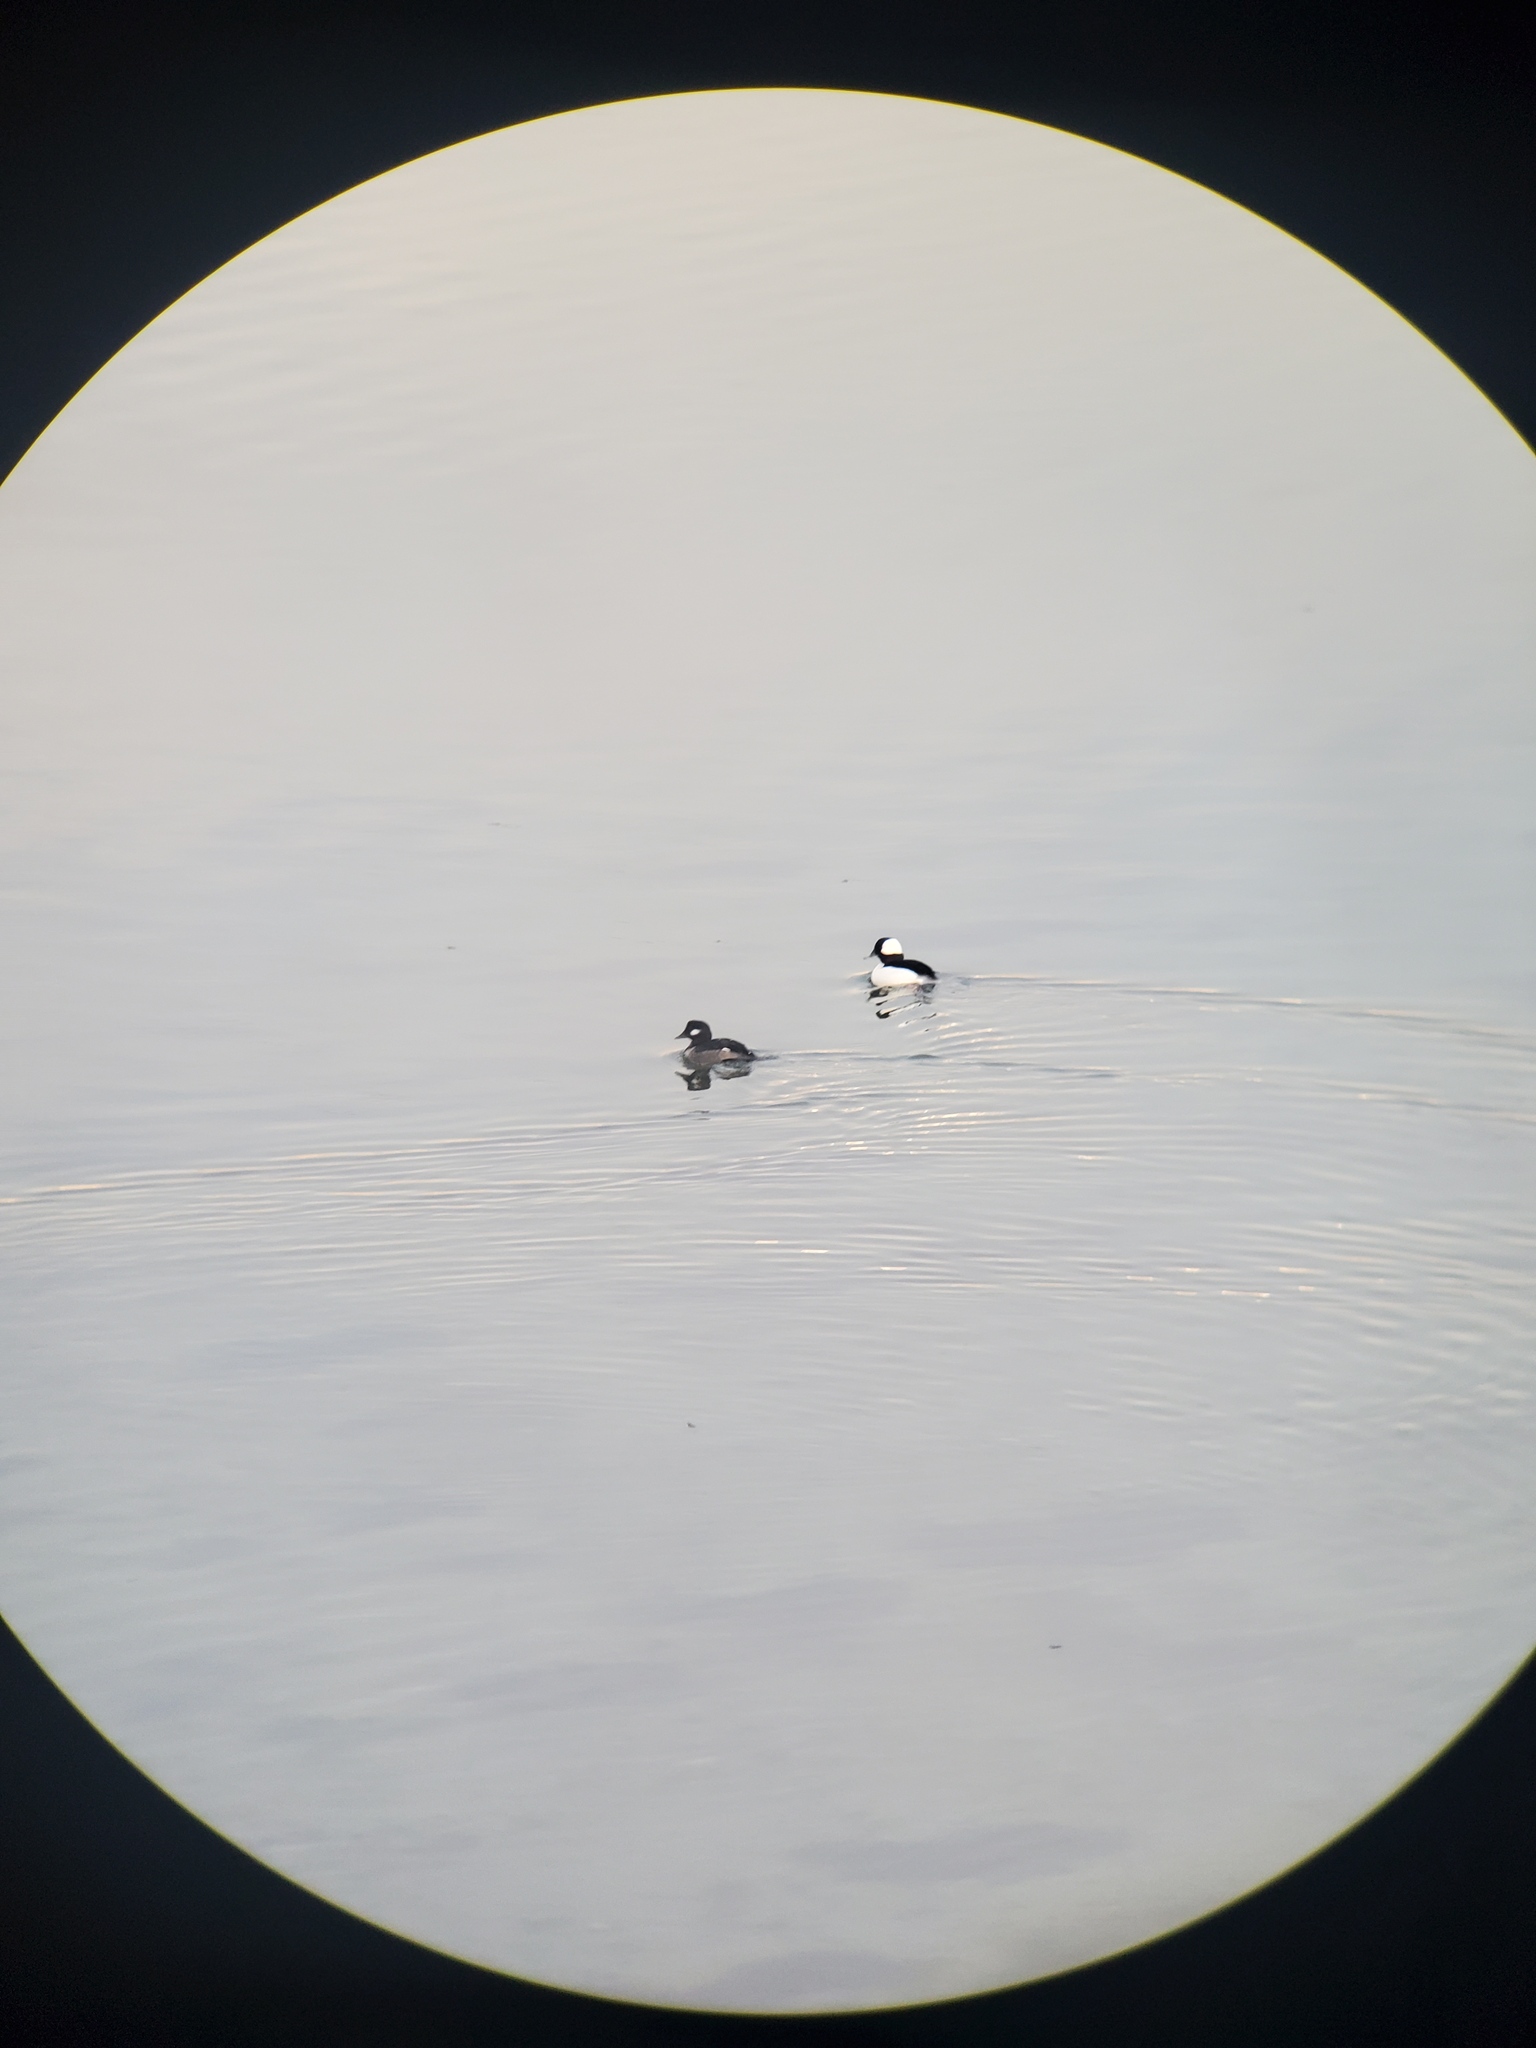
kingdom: Animalia
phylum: Chordata
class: Aves
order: Anseriformes
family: Anatidae
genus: Bucephala
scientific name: Bucephala albeola
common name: Bufflehead
